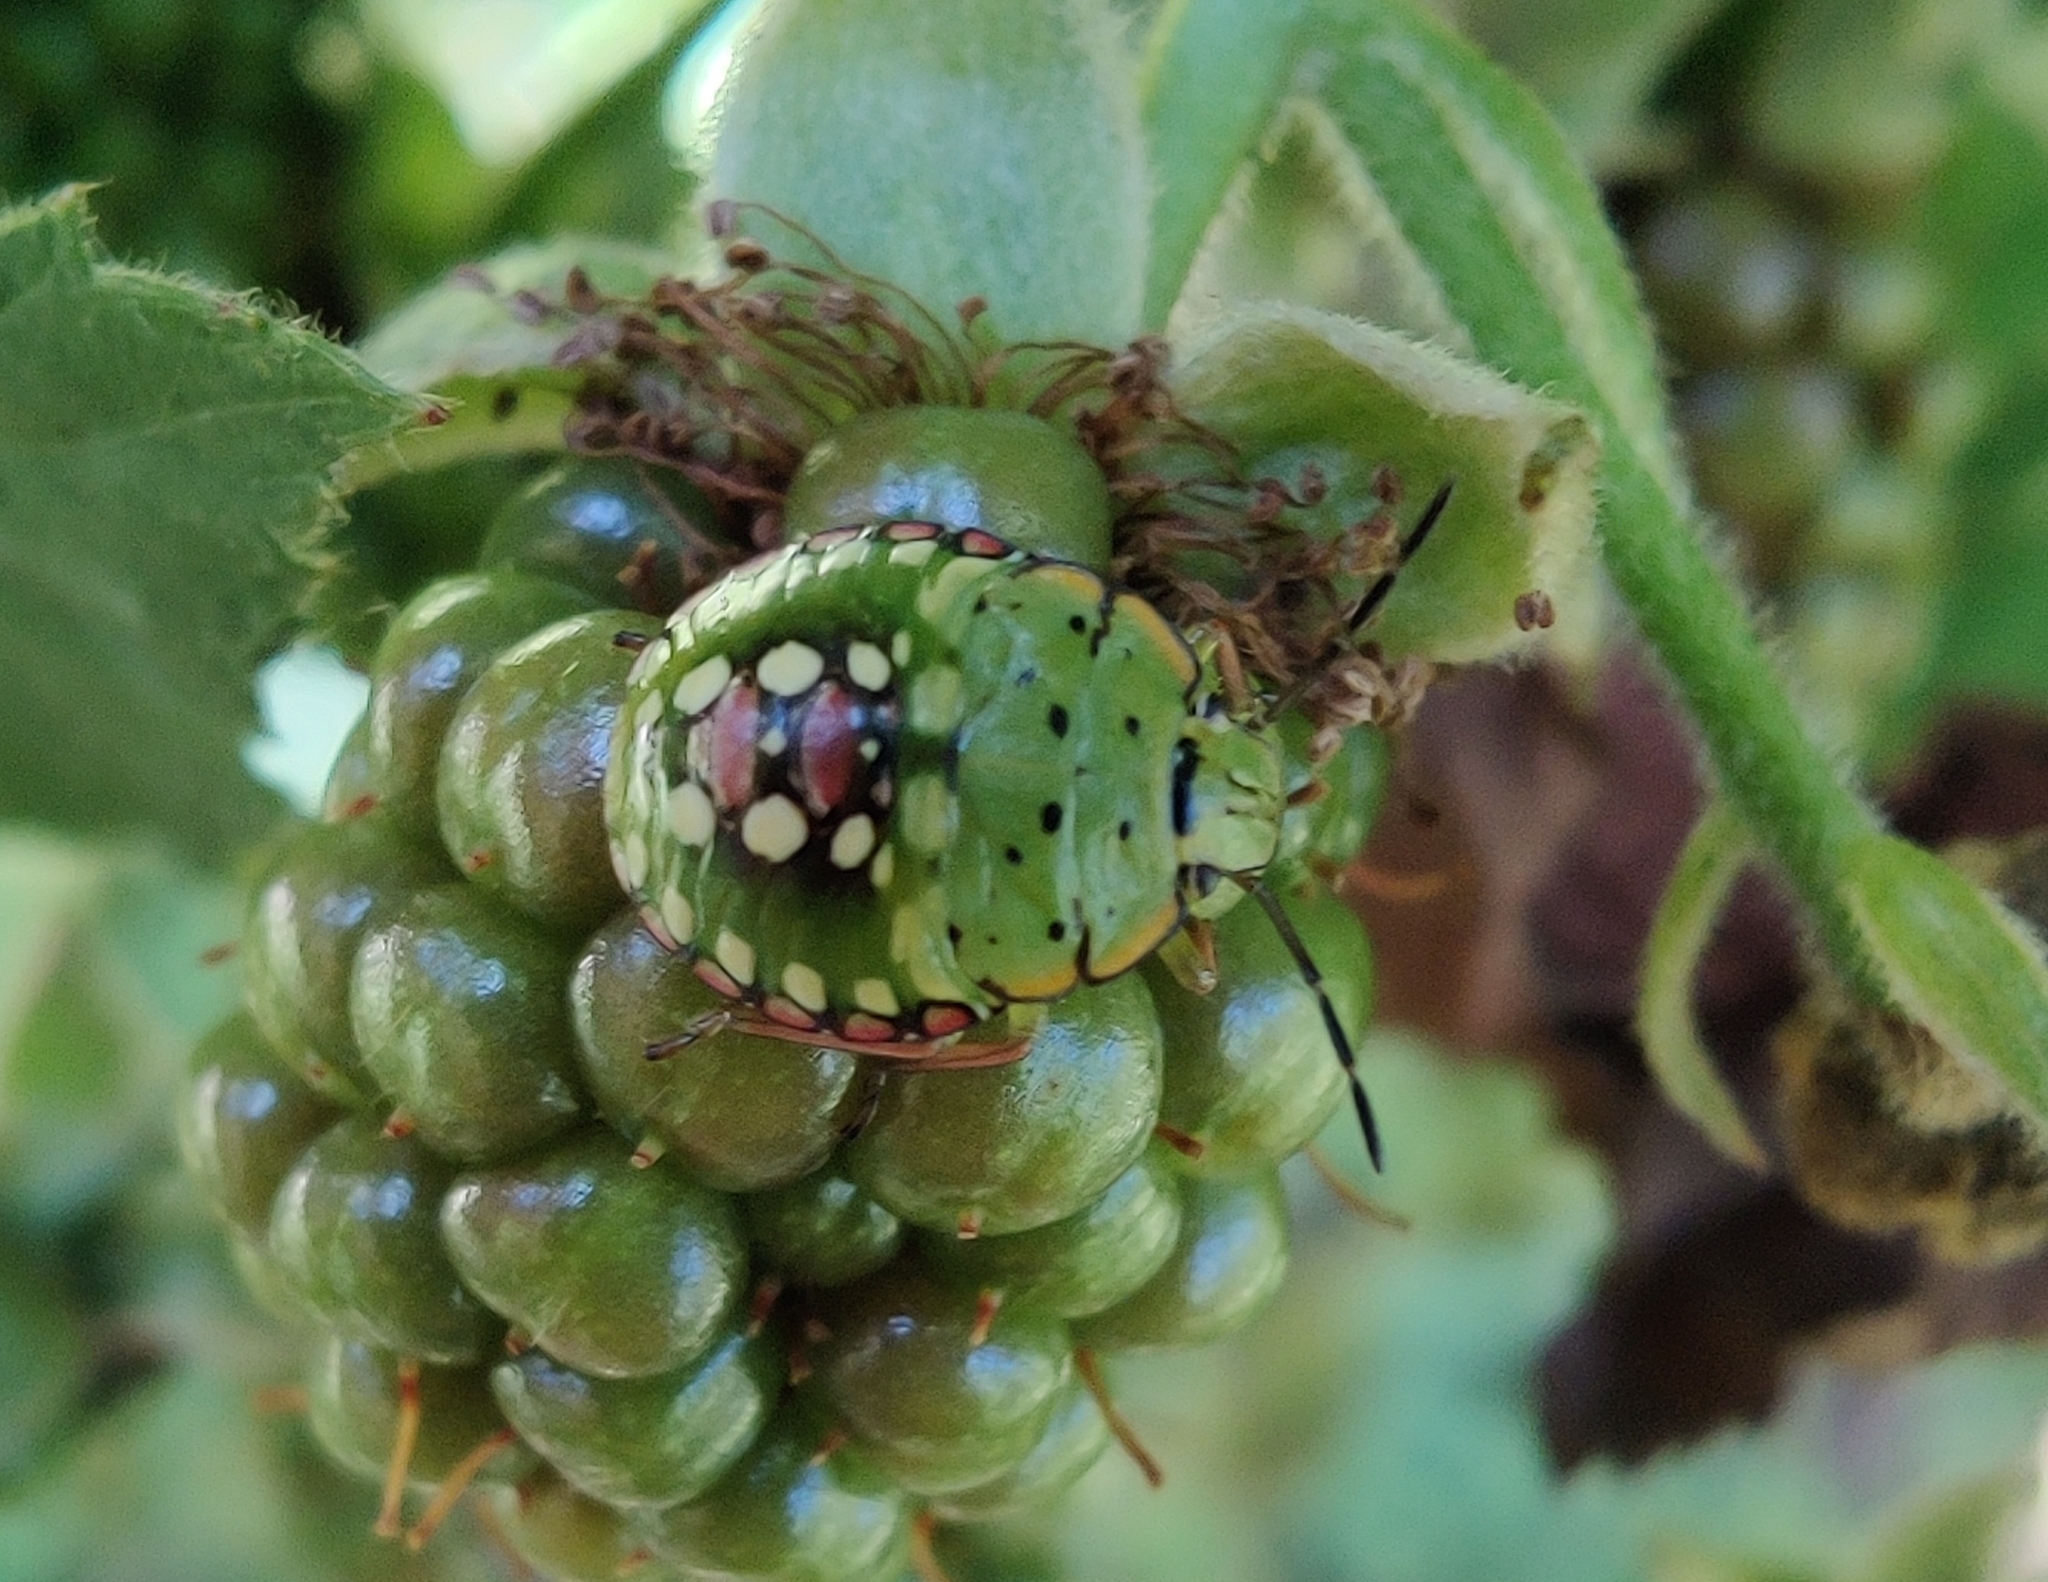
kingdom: Animalia
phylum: Arthropoda
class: Insecta
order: Hemiptera
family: Pentatomidae
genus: Nezara
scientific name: Nezara viridula
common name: Southern green stink bug
